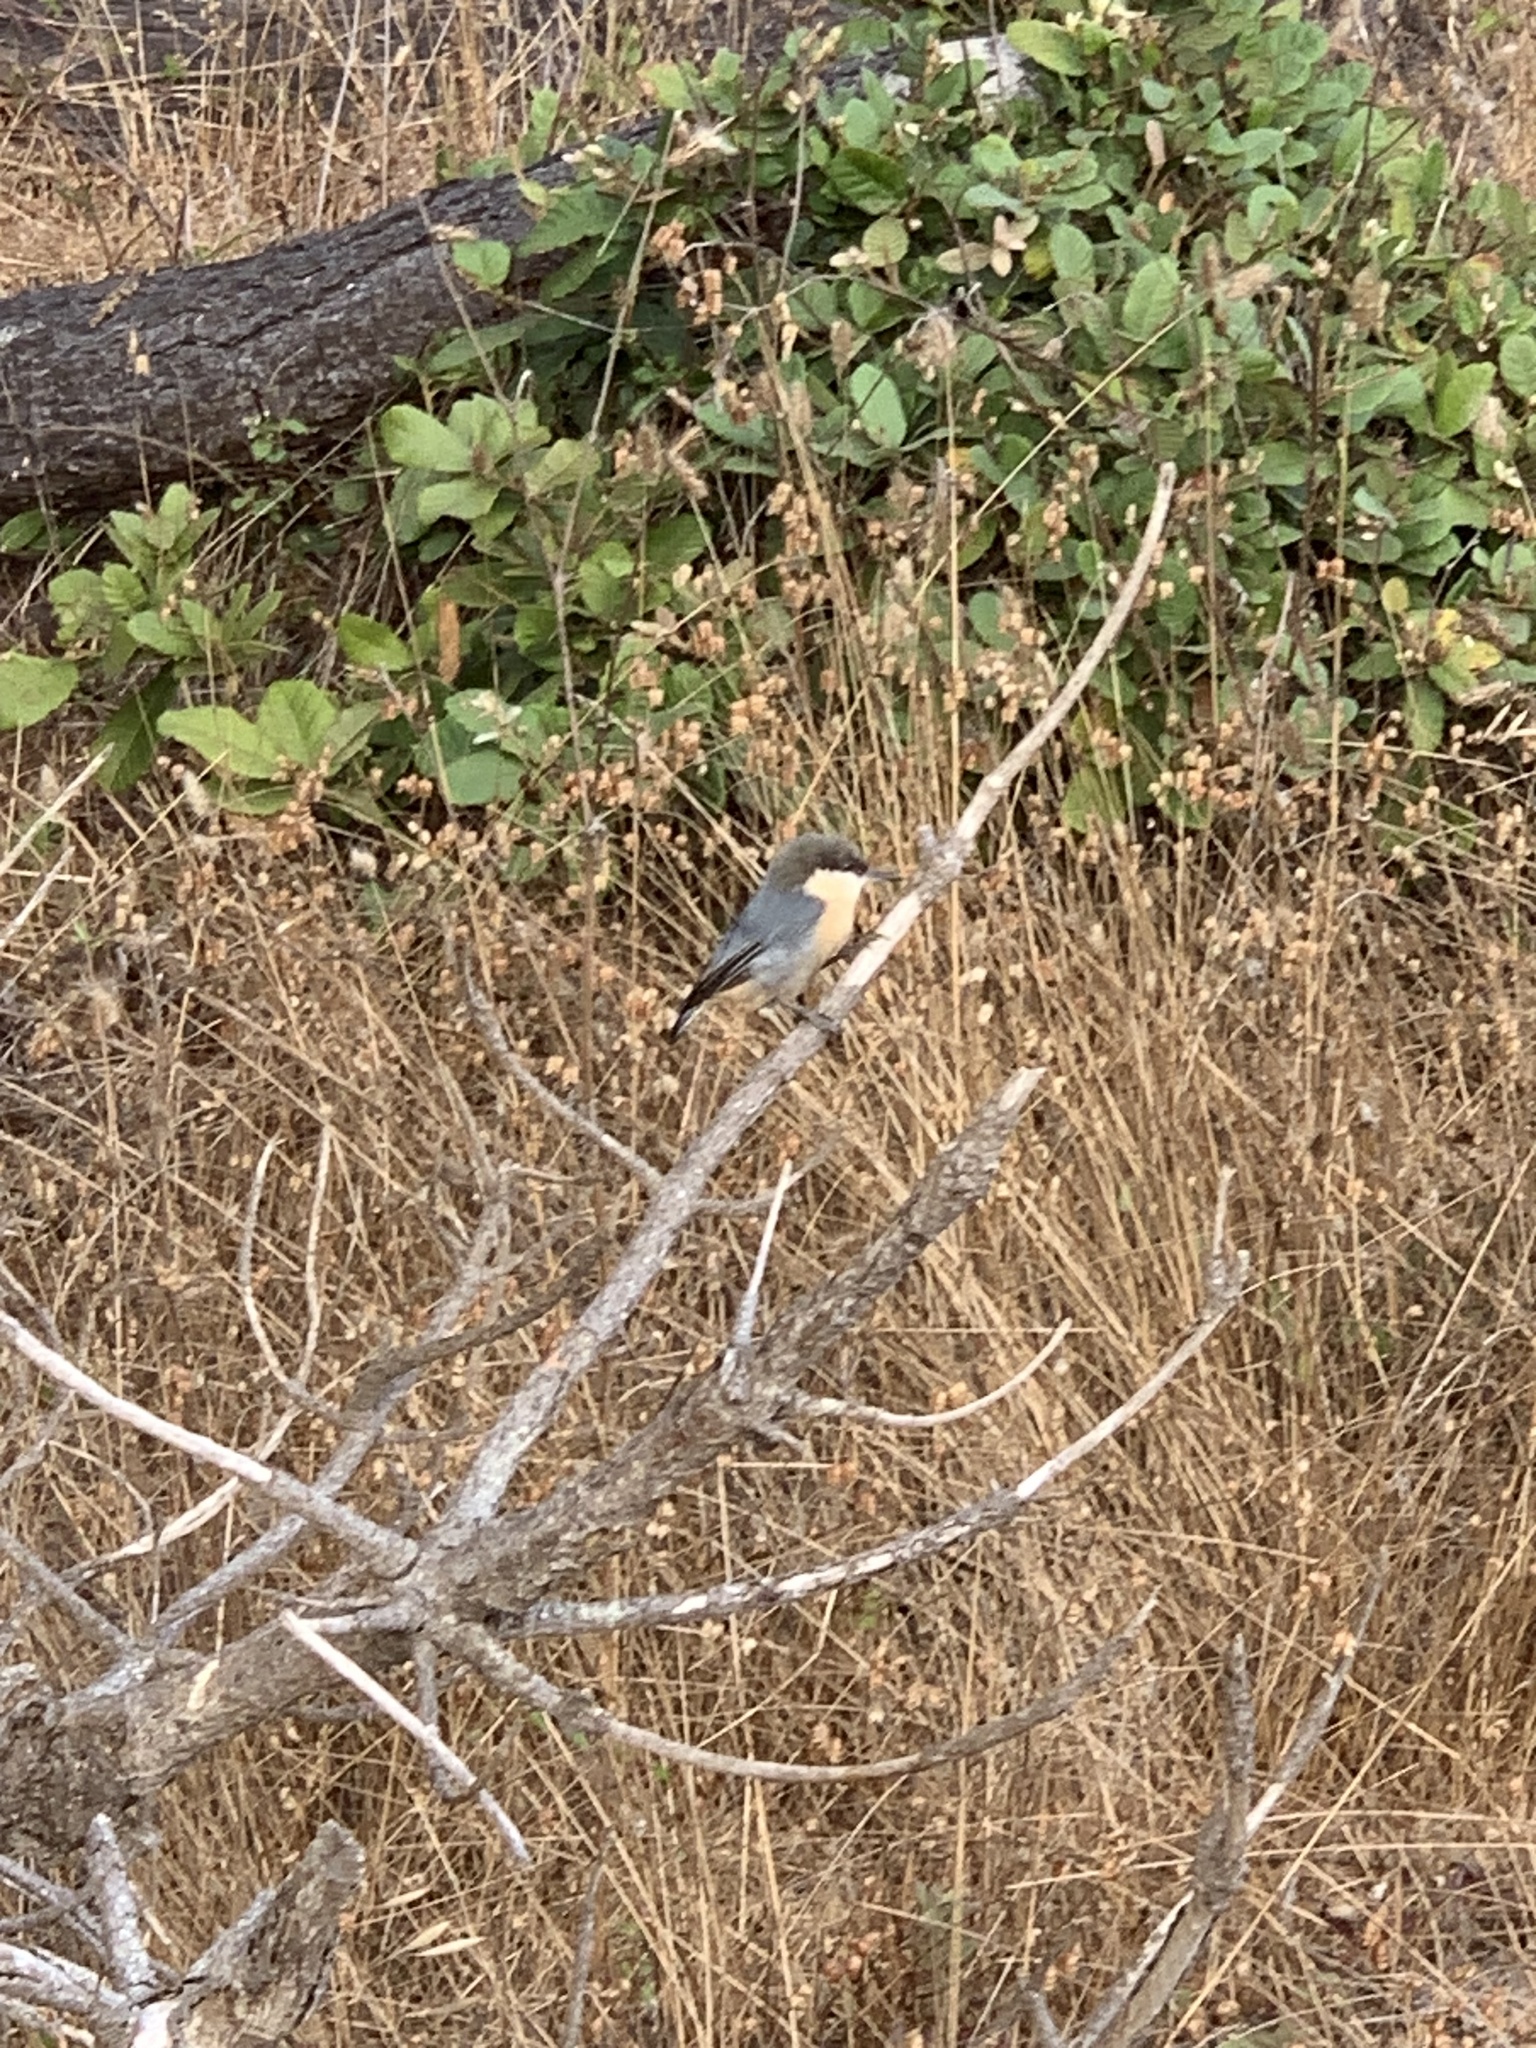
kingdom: Animalia
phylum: Chordata
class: Aves
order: Passeriformes
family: Sittidae
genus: Sitta
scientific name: Sitta pygmaea
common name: Pygmy nuthatch
